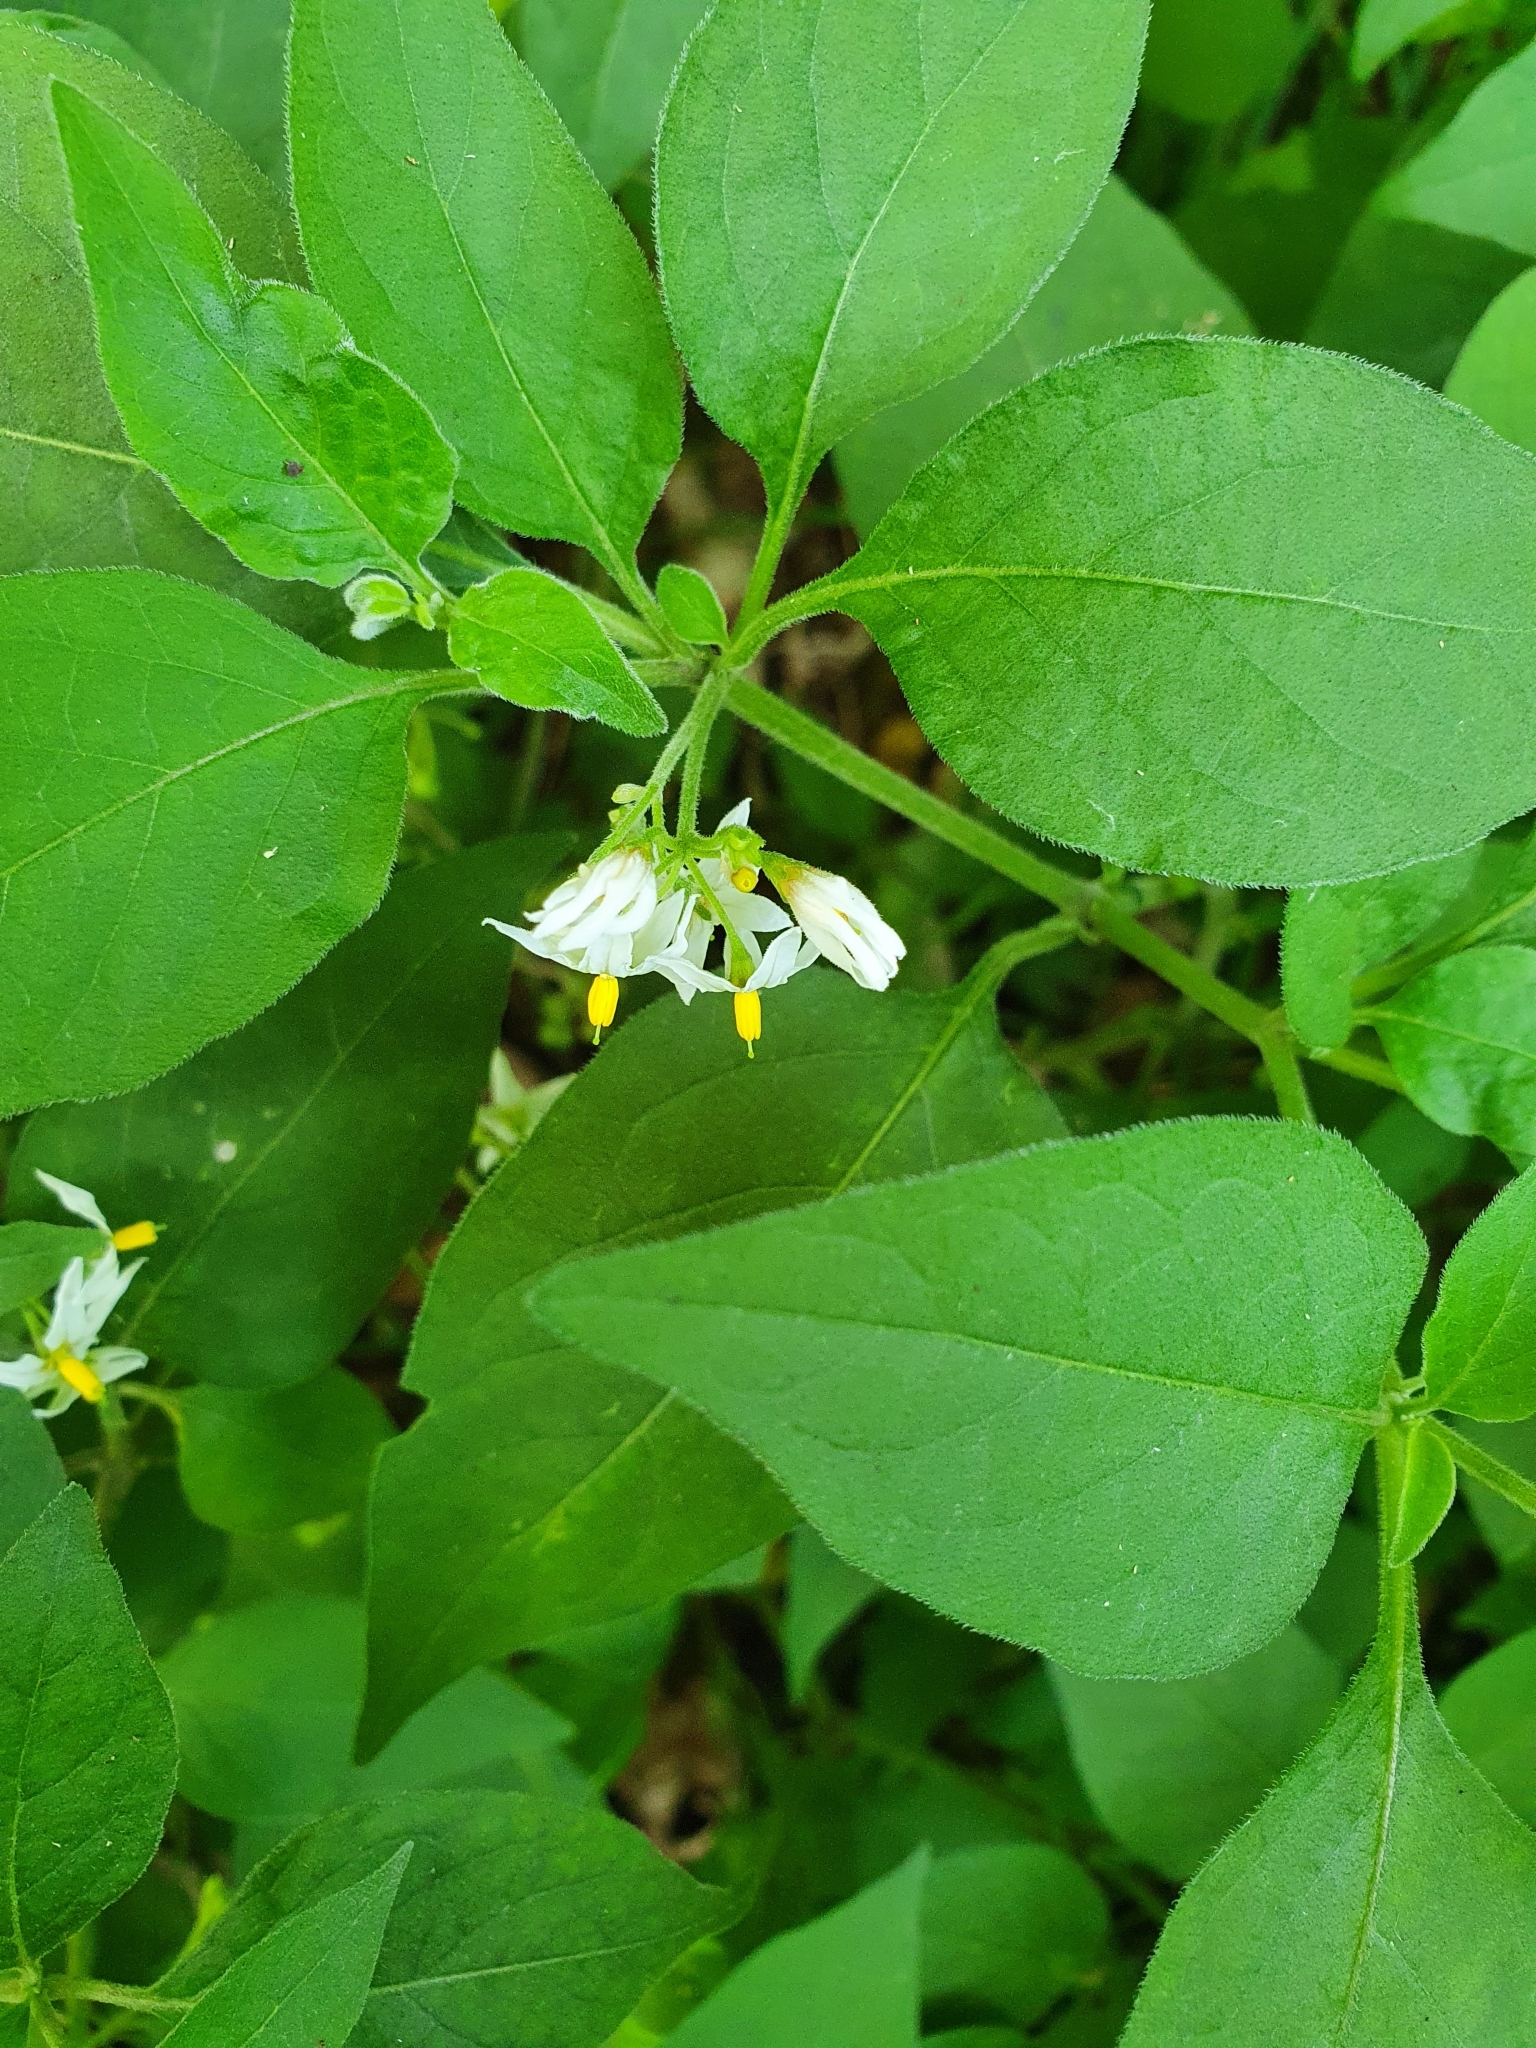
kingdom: Plantae
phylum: Tracheophyta
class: Magnoliopsida
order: Solanales
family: Solanaceae
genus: Solanum
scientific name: Solanum chenopodioides
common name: Tall nightshade
